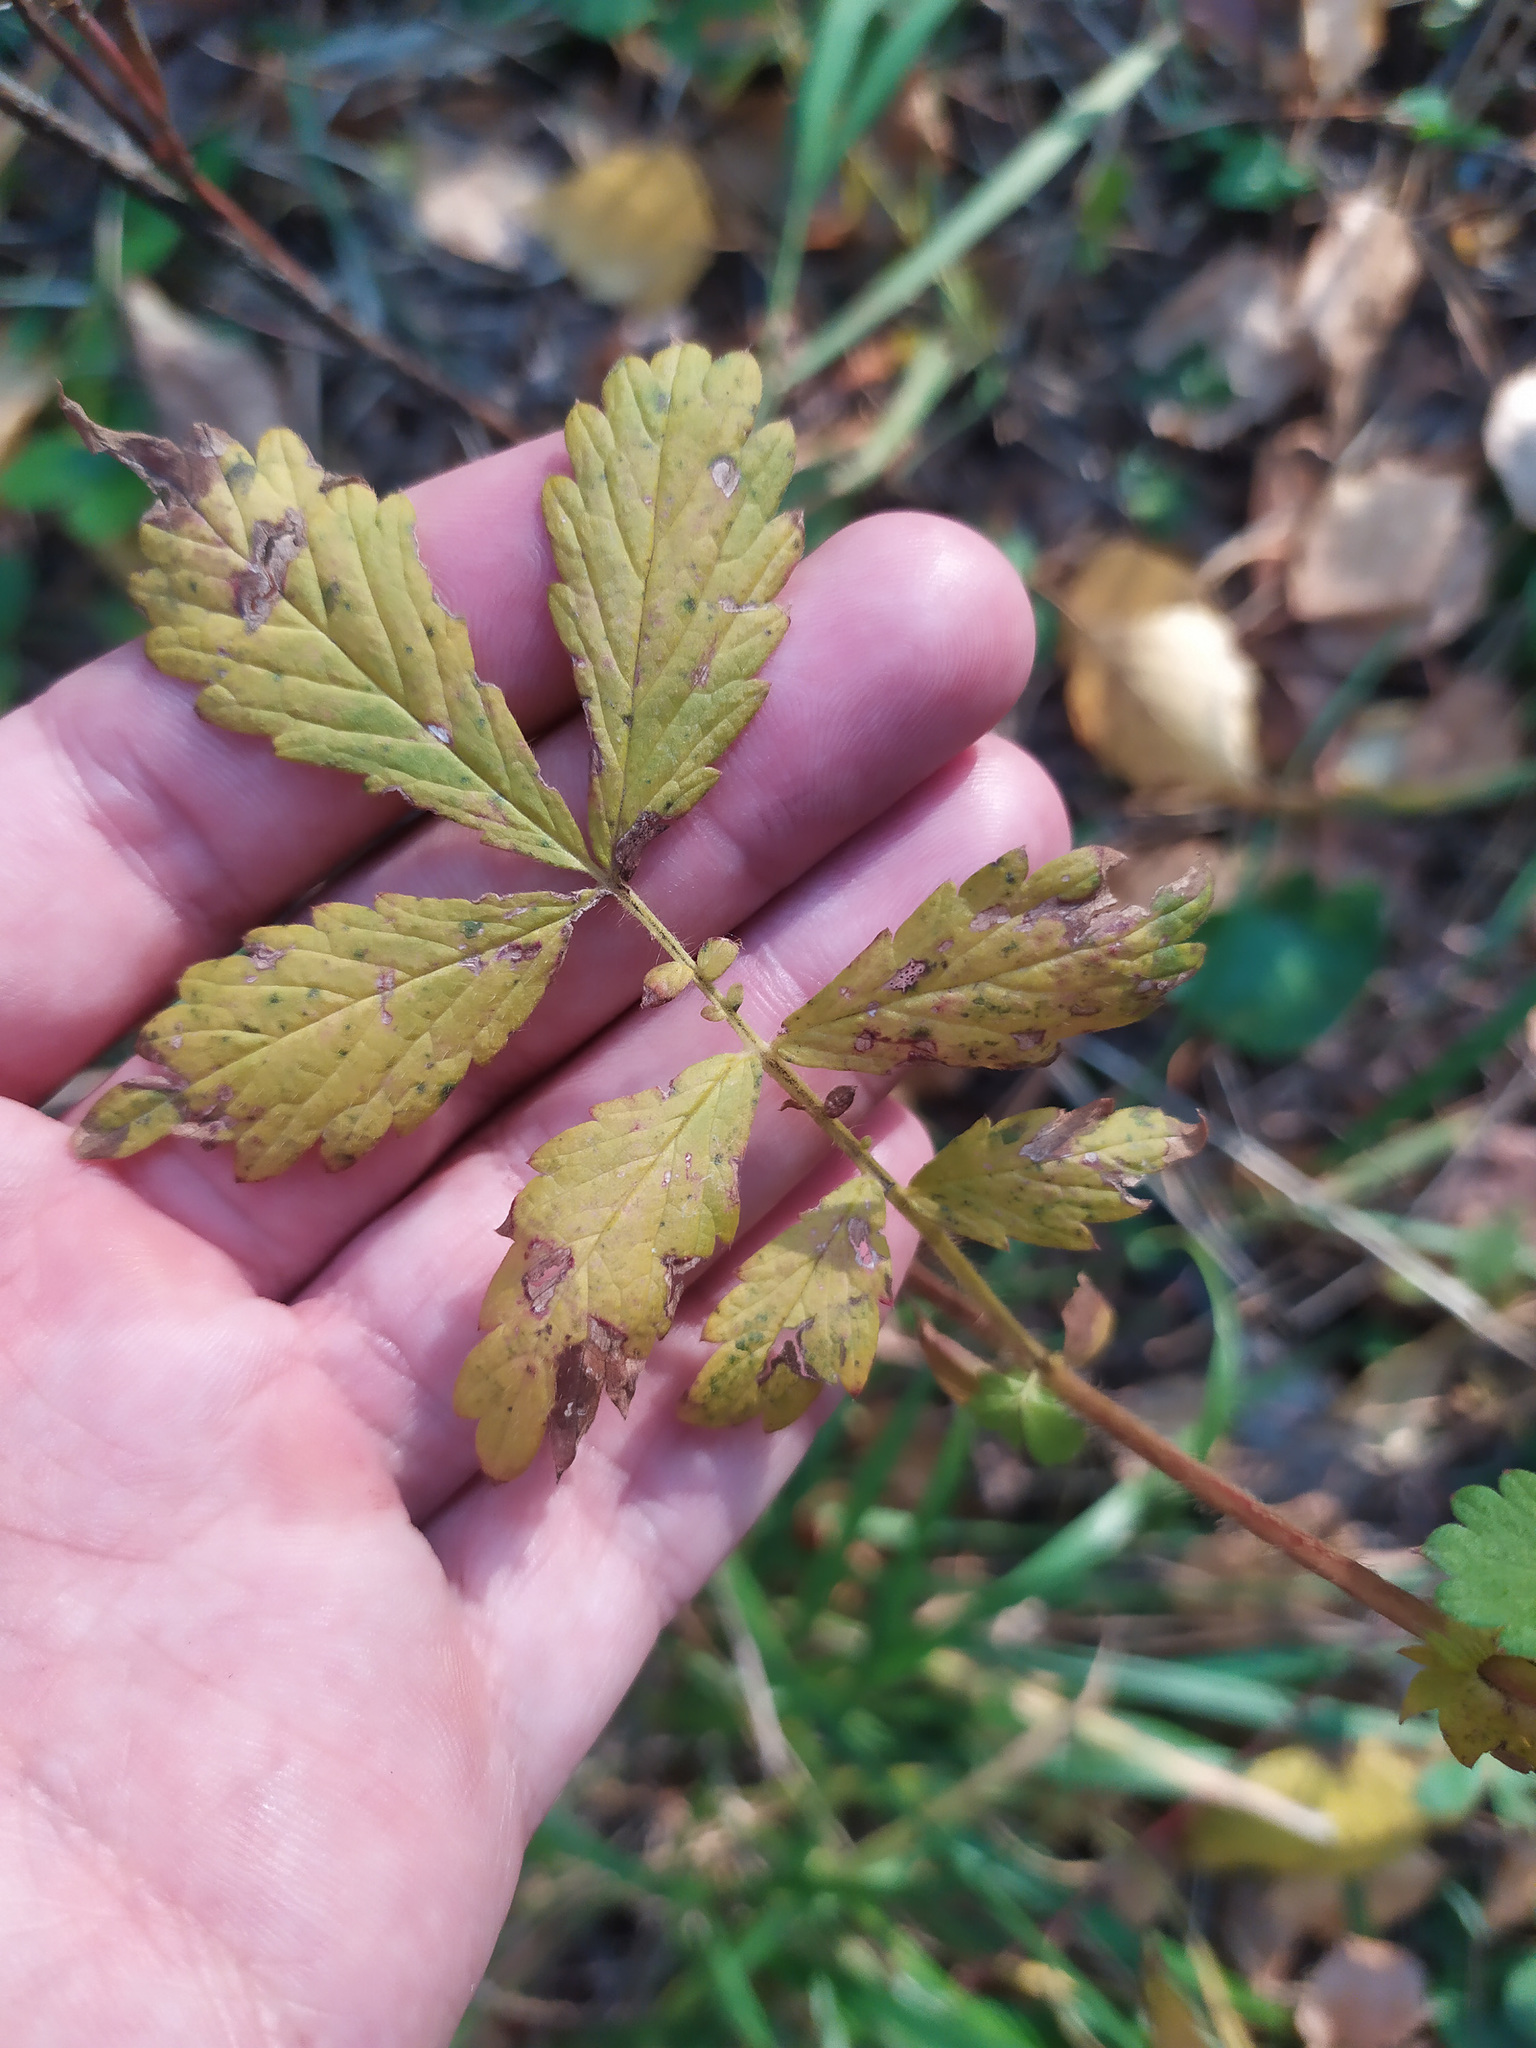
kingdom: Plantae
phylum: Tracheophyta
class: Magnoliopsida
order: Rosales
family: Rosaceae
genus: Agrimonia
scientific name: Agrimonia pilosa
